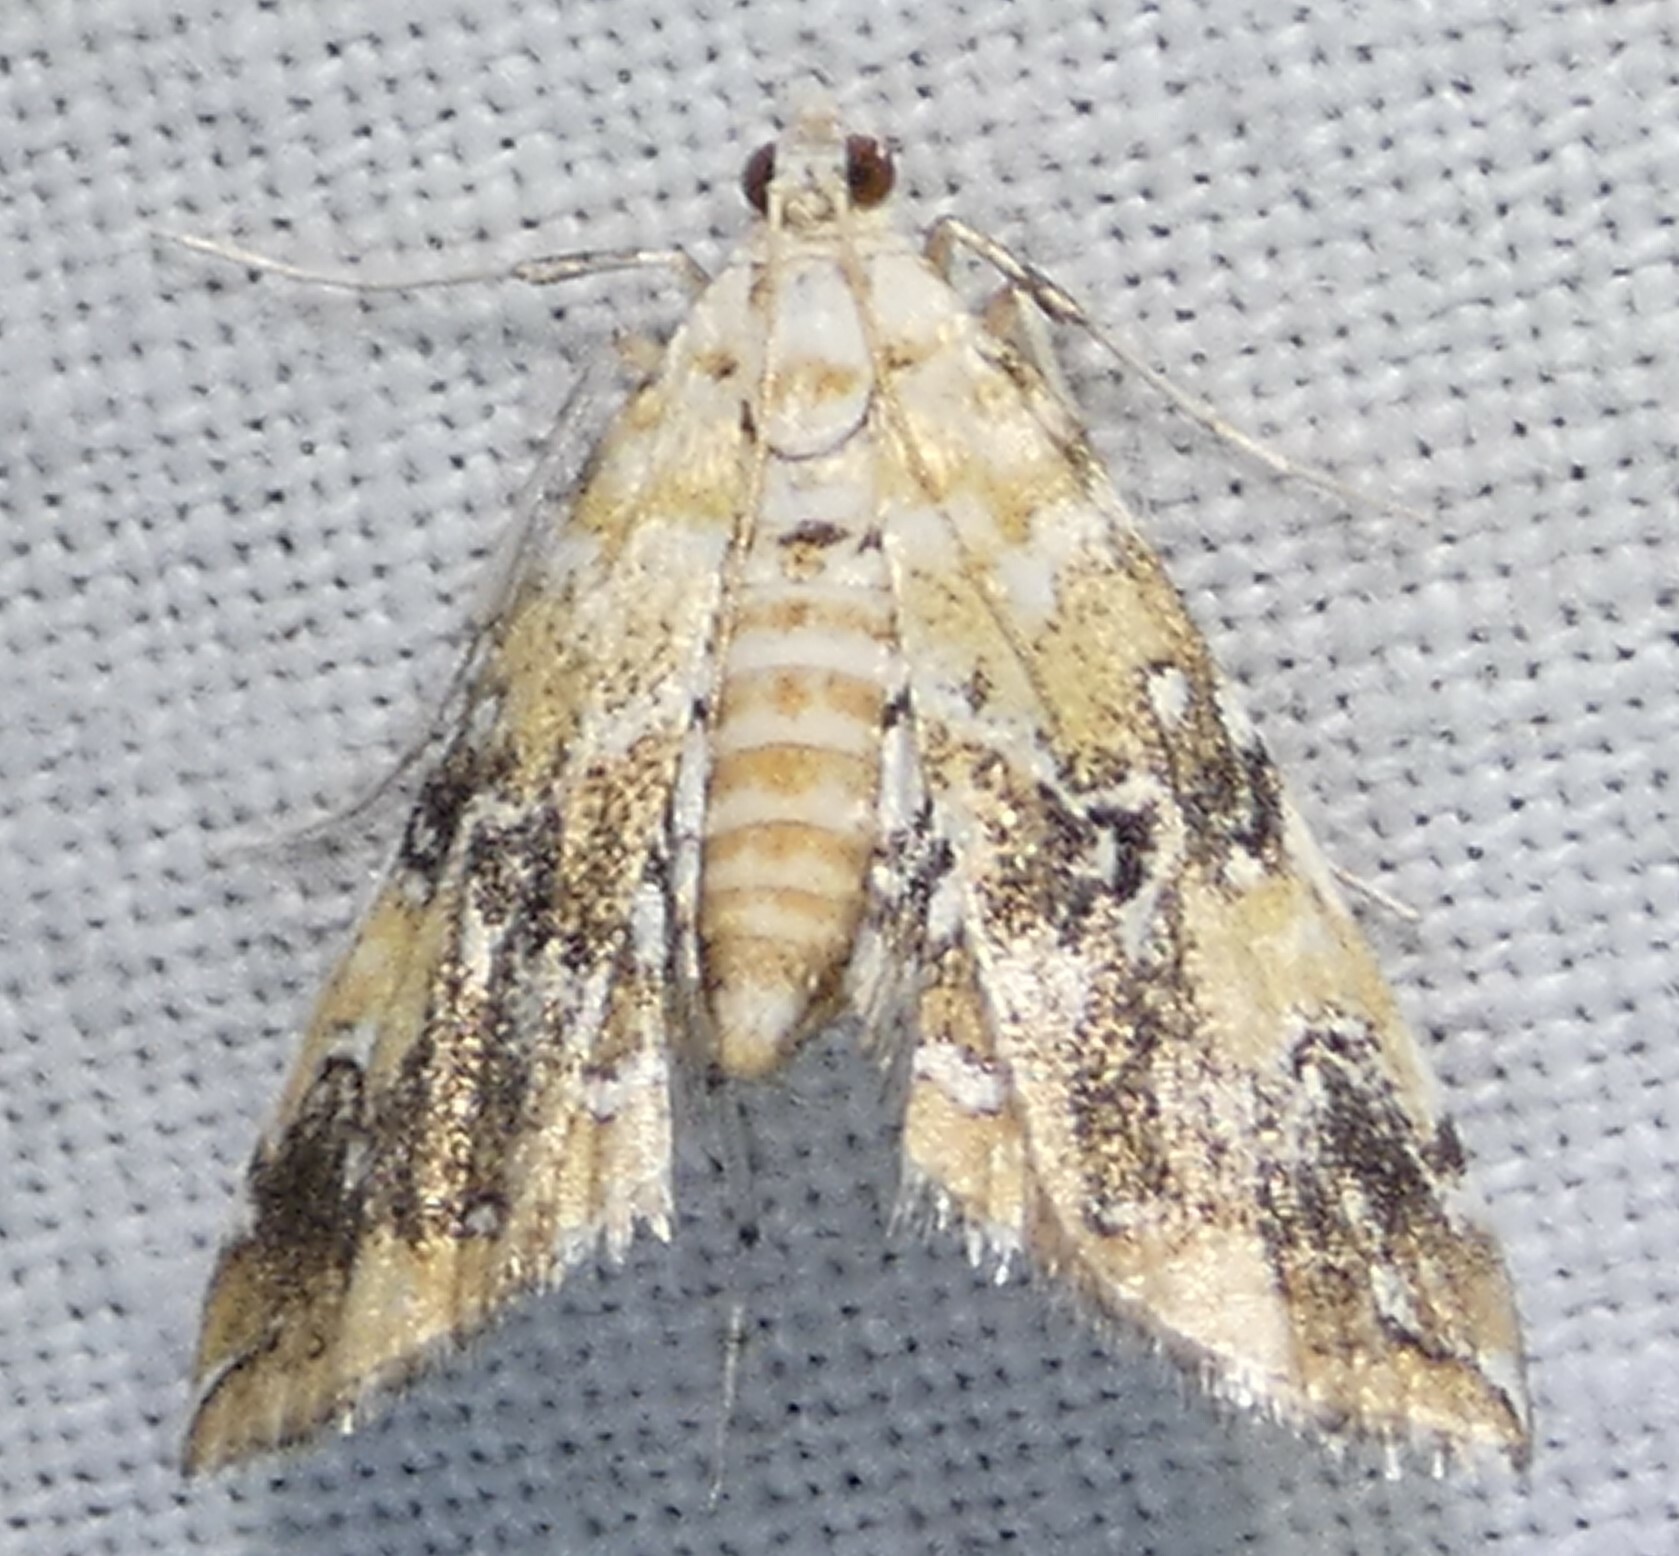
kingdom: Animalia
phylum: Arthropoda
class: Insecta
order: Lepidoptera
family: Crambidae
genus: Elophila
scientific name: Elophila faulalis
